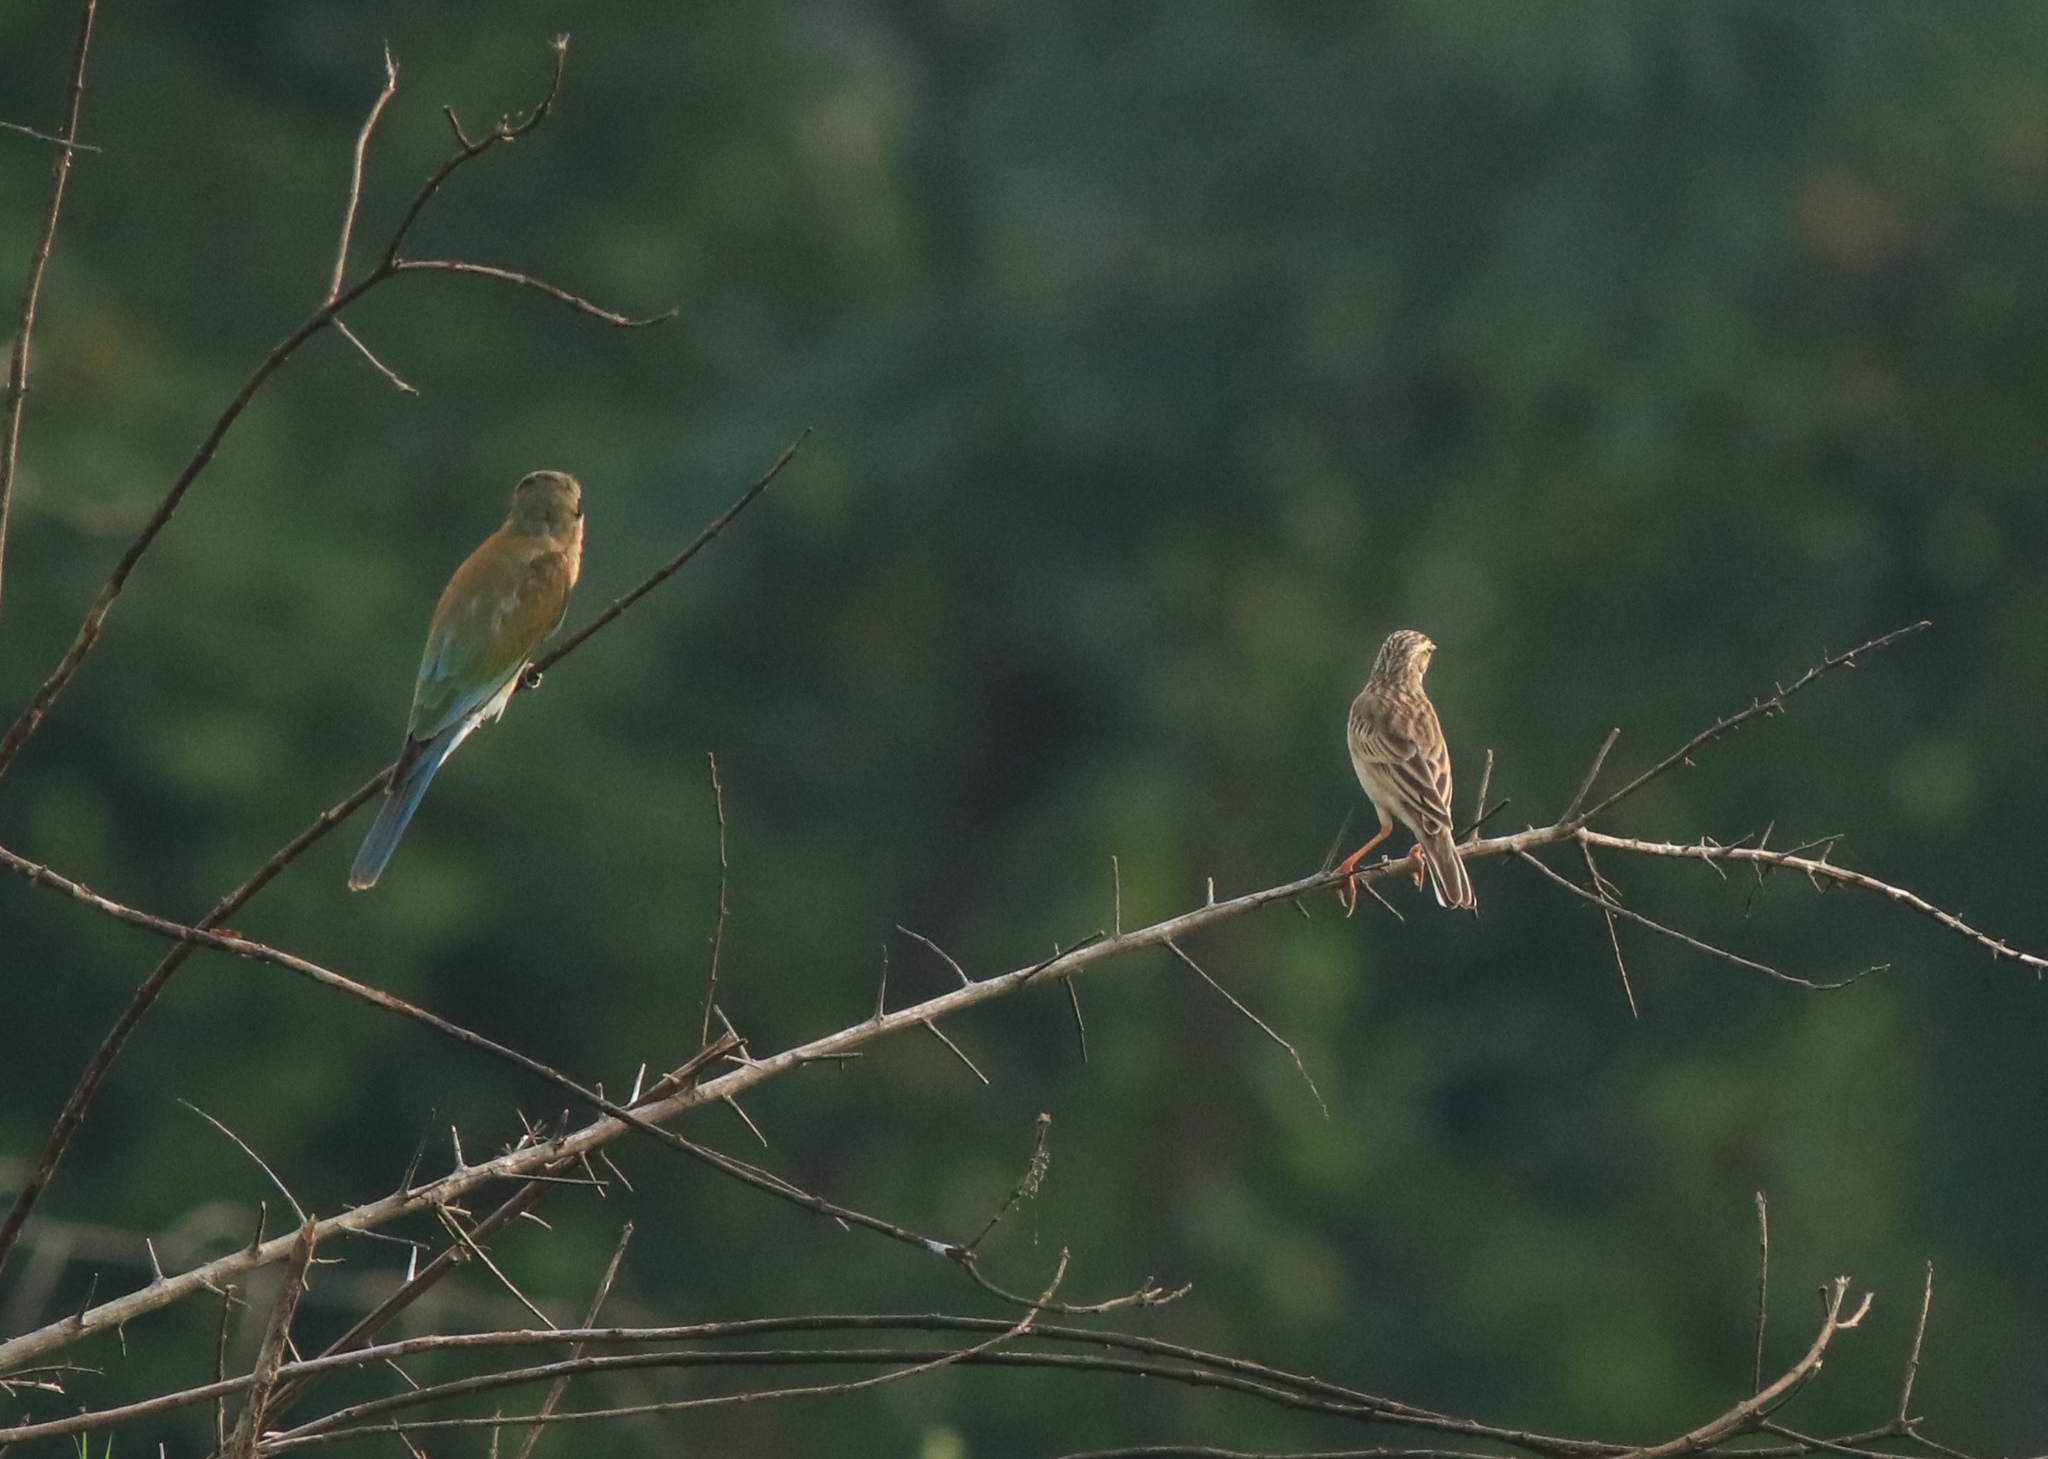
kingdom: Animalia
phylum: Chordata
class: Aves
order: Coraciiformes
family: Meropidae
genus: Merops
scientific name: Merops philippinus
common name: Blue-tailed bee-eater
